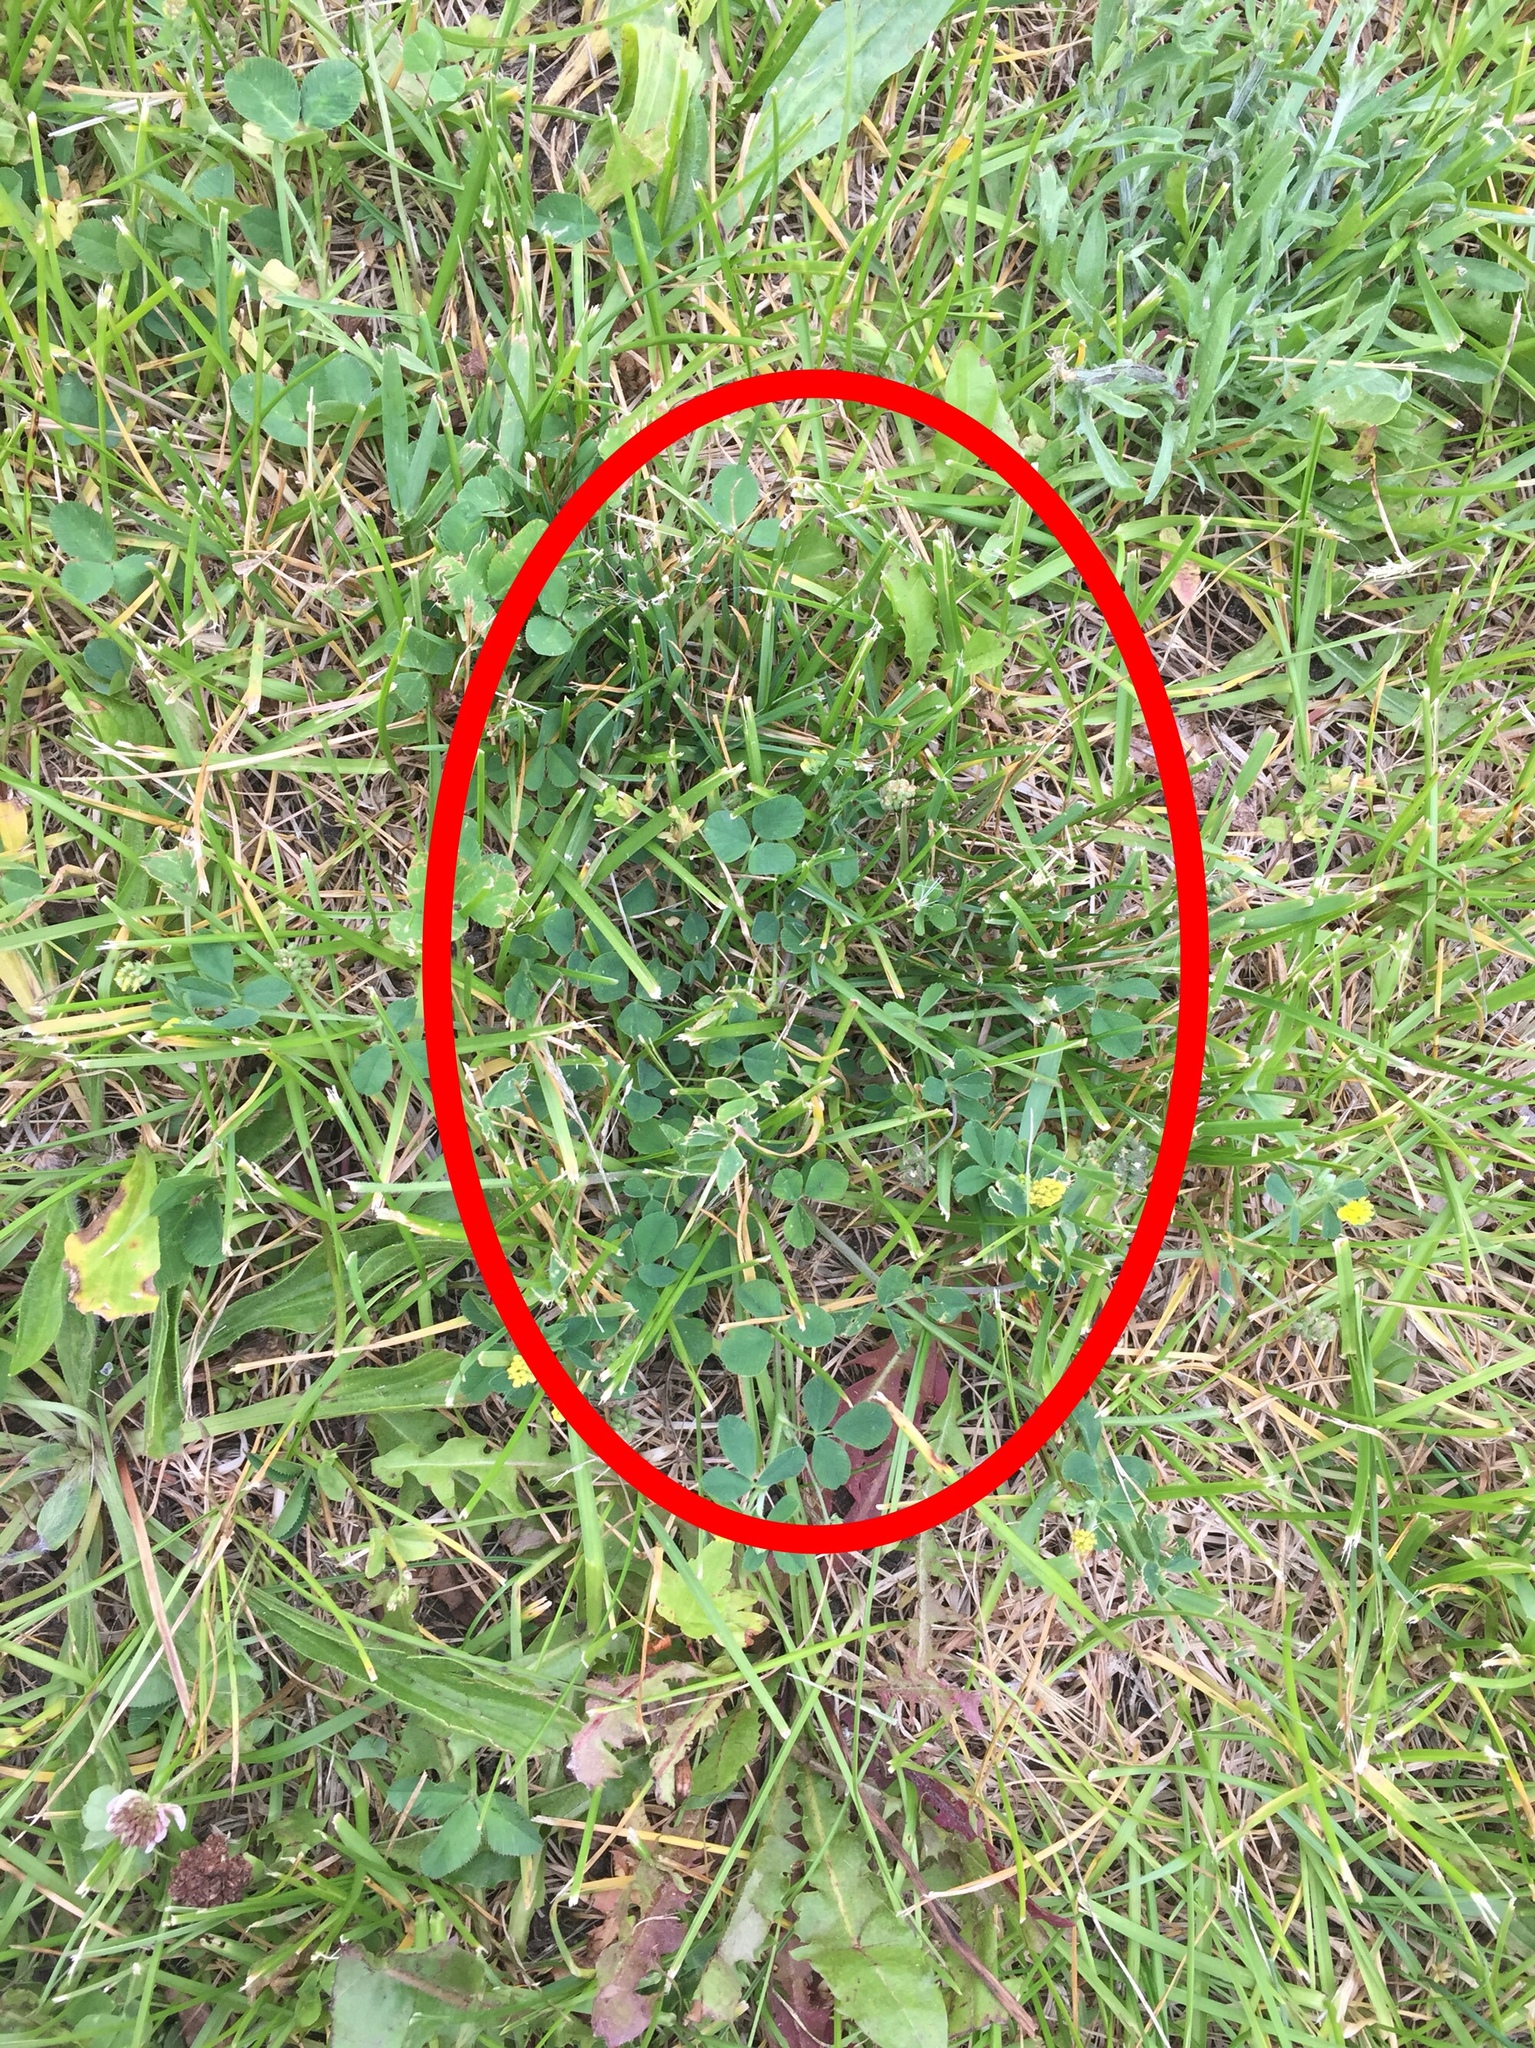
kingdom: Plantae
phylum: Tracheophyta
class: Magnoliopsida
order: Fabales
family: Fabaceae
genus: Medicago
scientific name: Medicago lupulina
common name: Black medick
